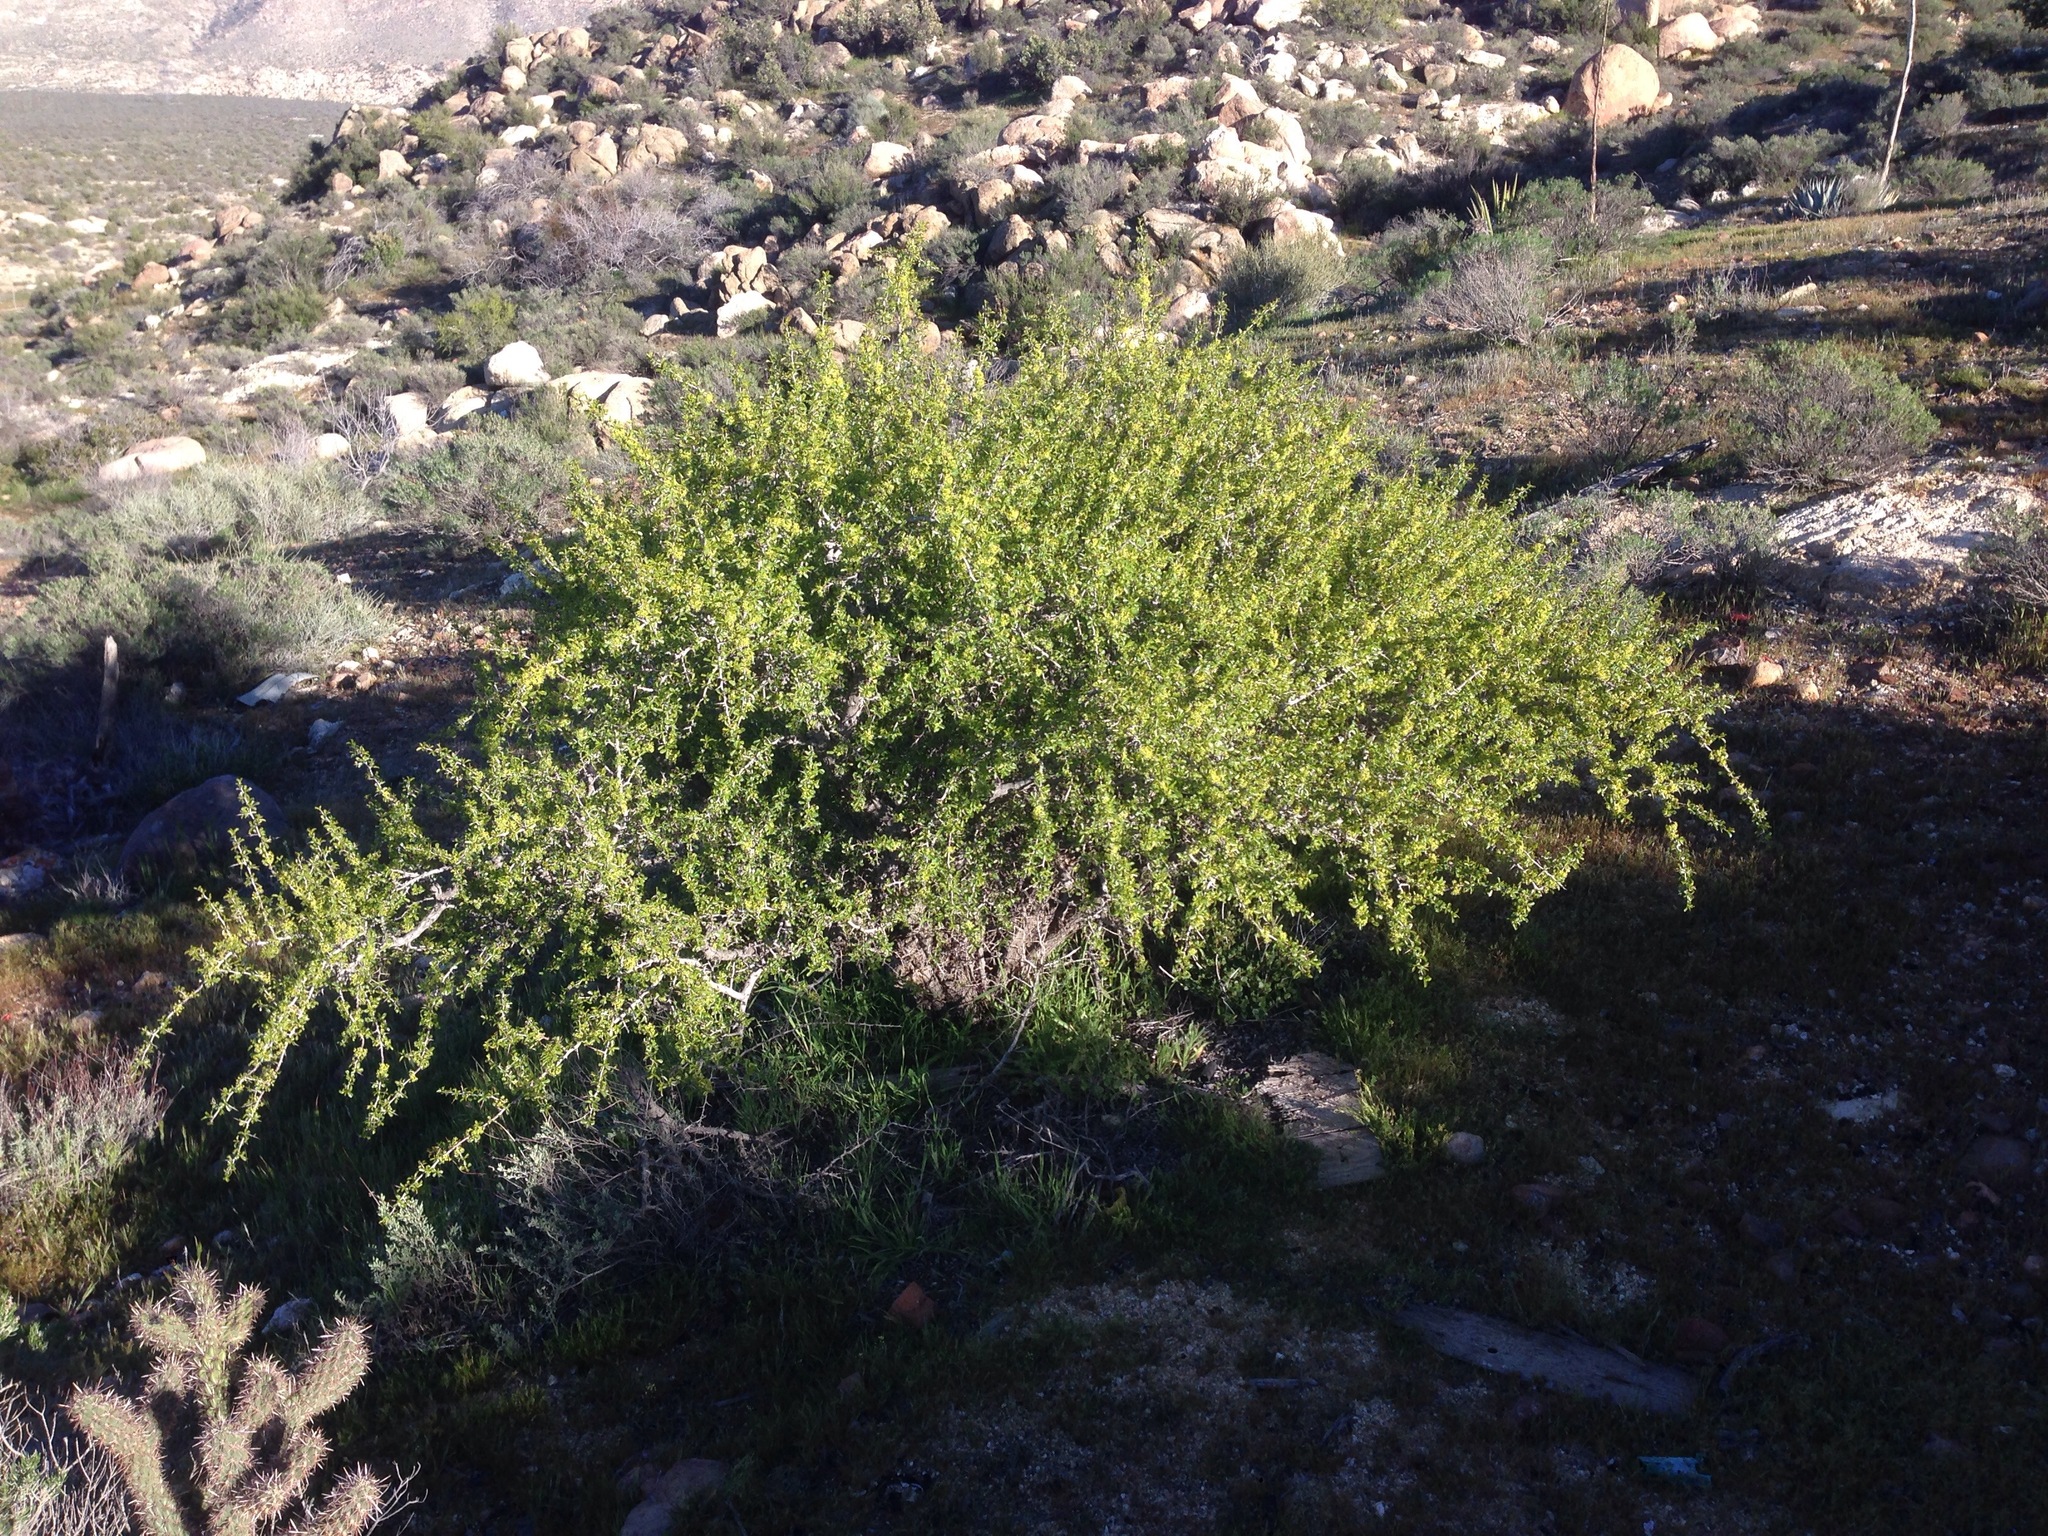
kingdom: Plantae
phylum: Tracheophyta
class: Magnoliopsida
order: Rosales
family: Rhamnaceae
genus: Pseudoziziphus
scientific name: Pseudoziziphus parryi
